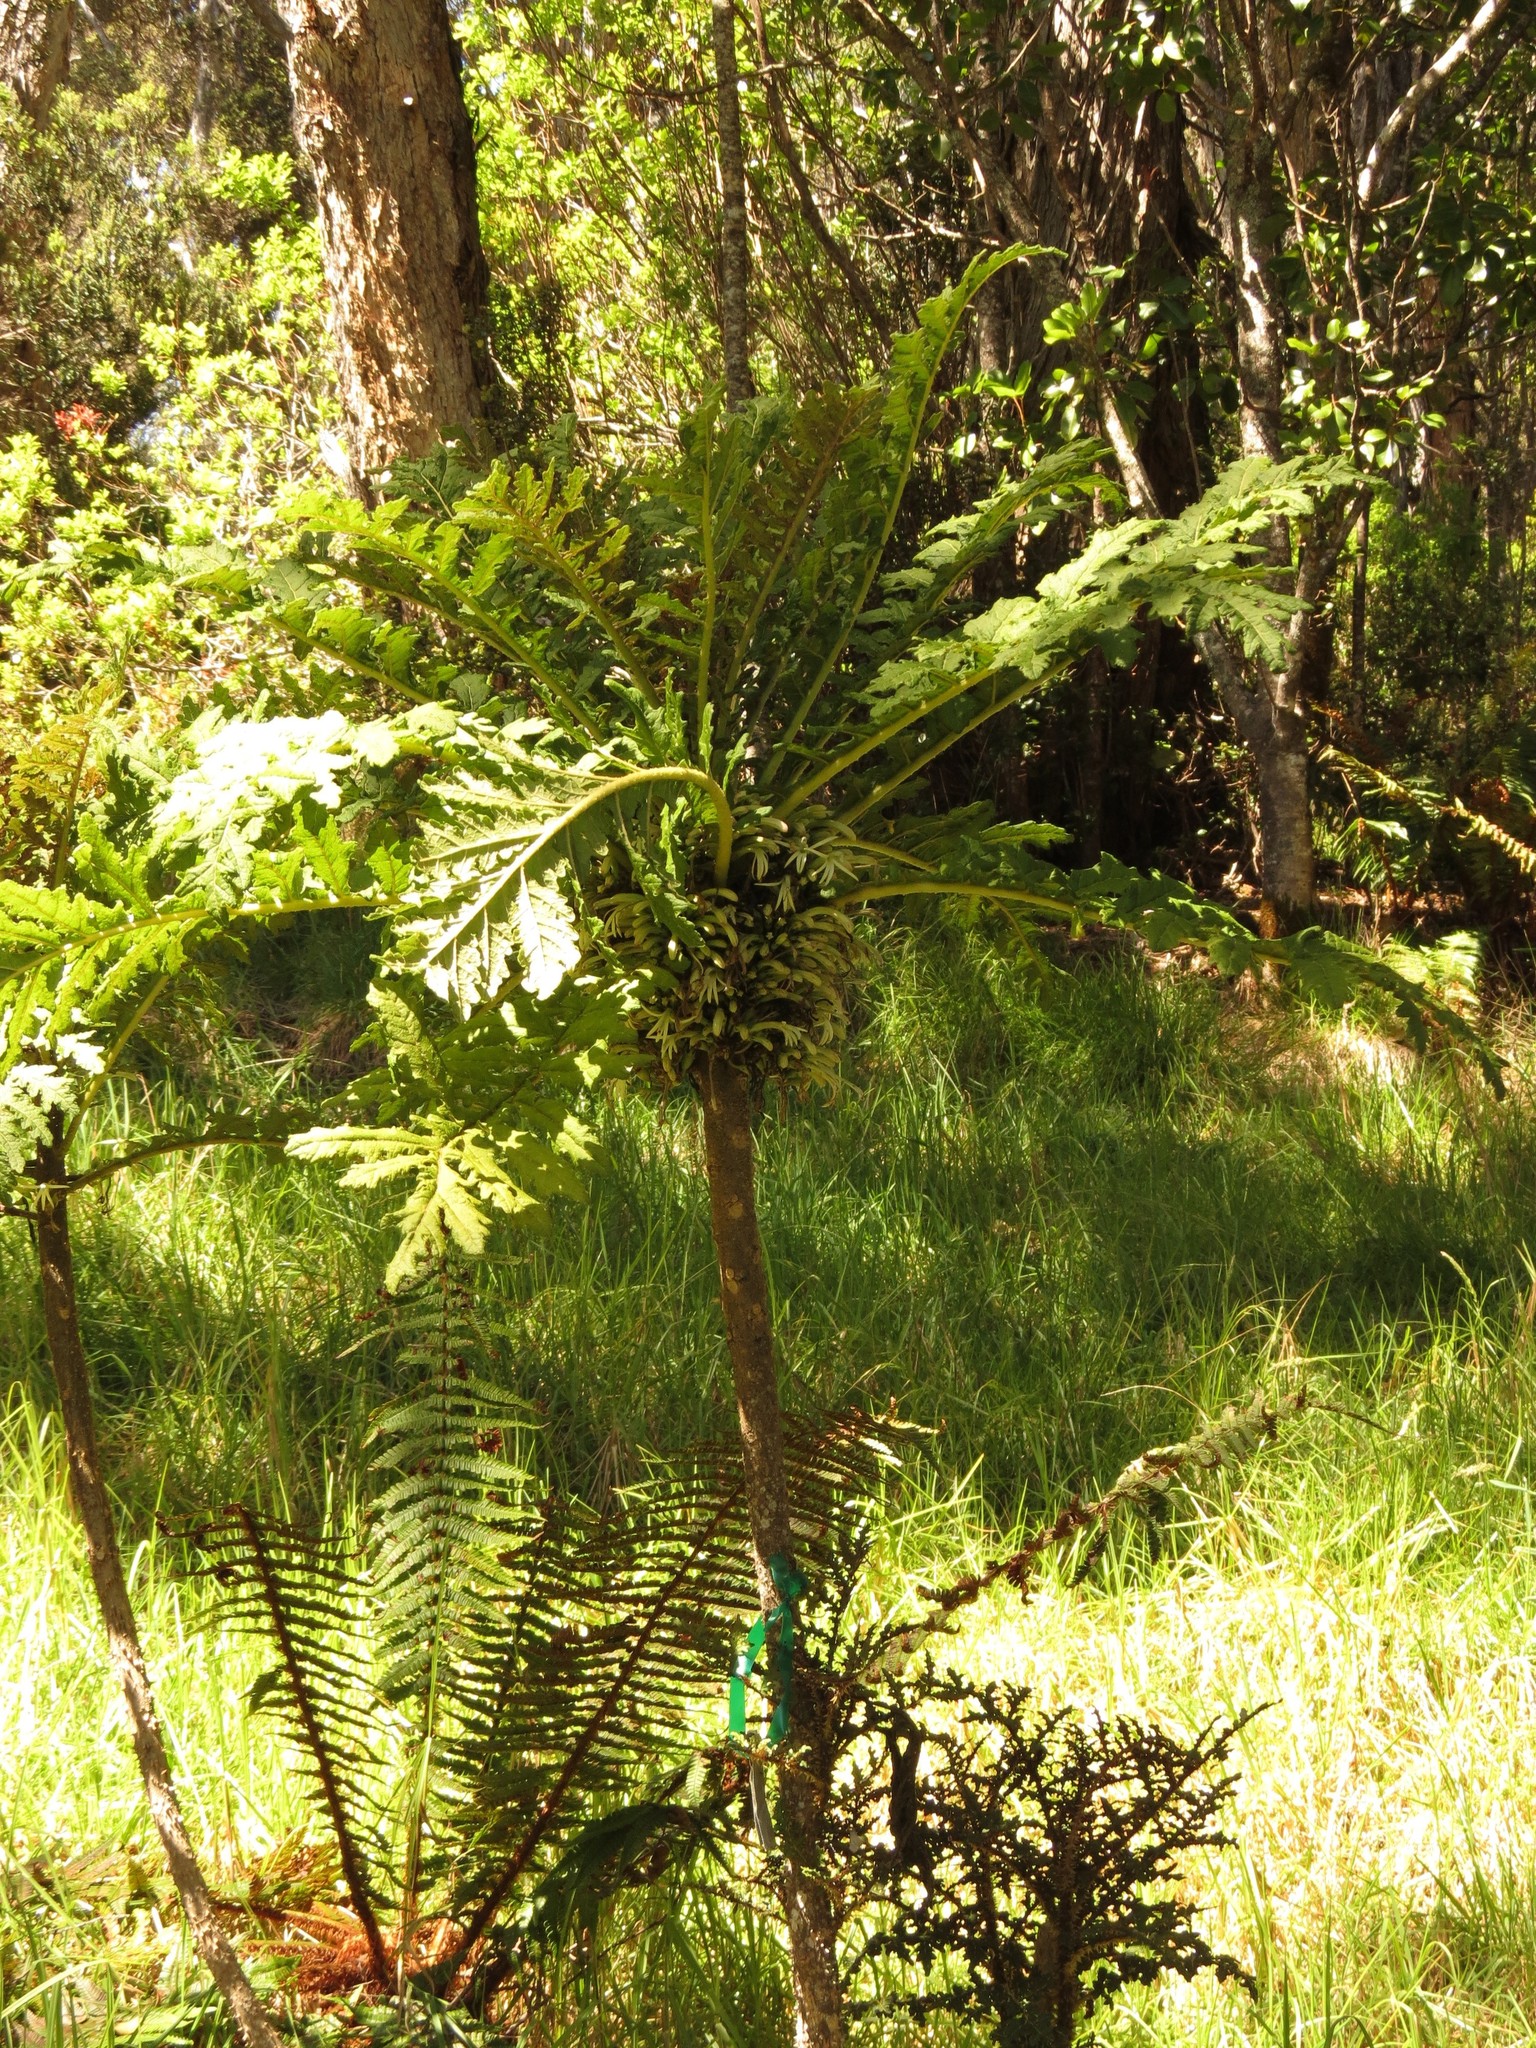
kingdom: Plantae
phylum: Tracheophyta
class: Magnoliopsida
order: Asterales
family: Campanulaceae
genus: Cyanea
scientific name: Cyanea shipmanii
